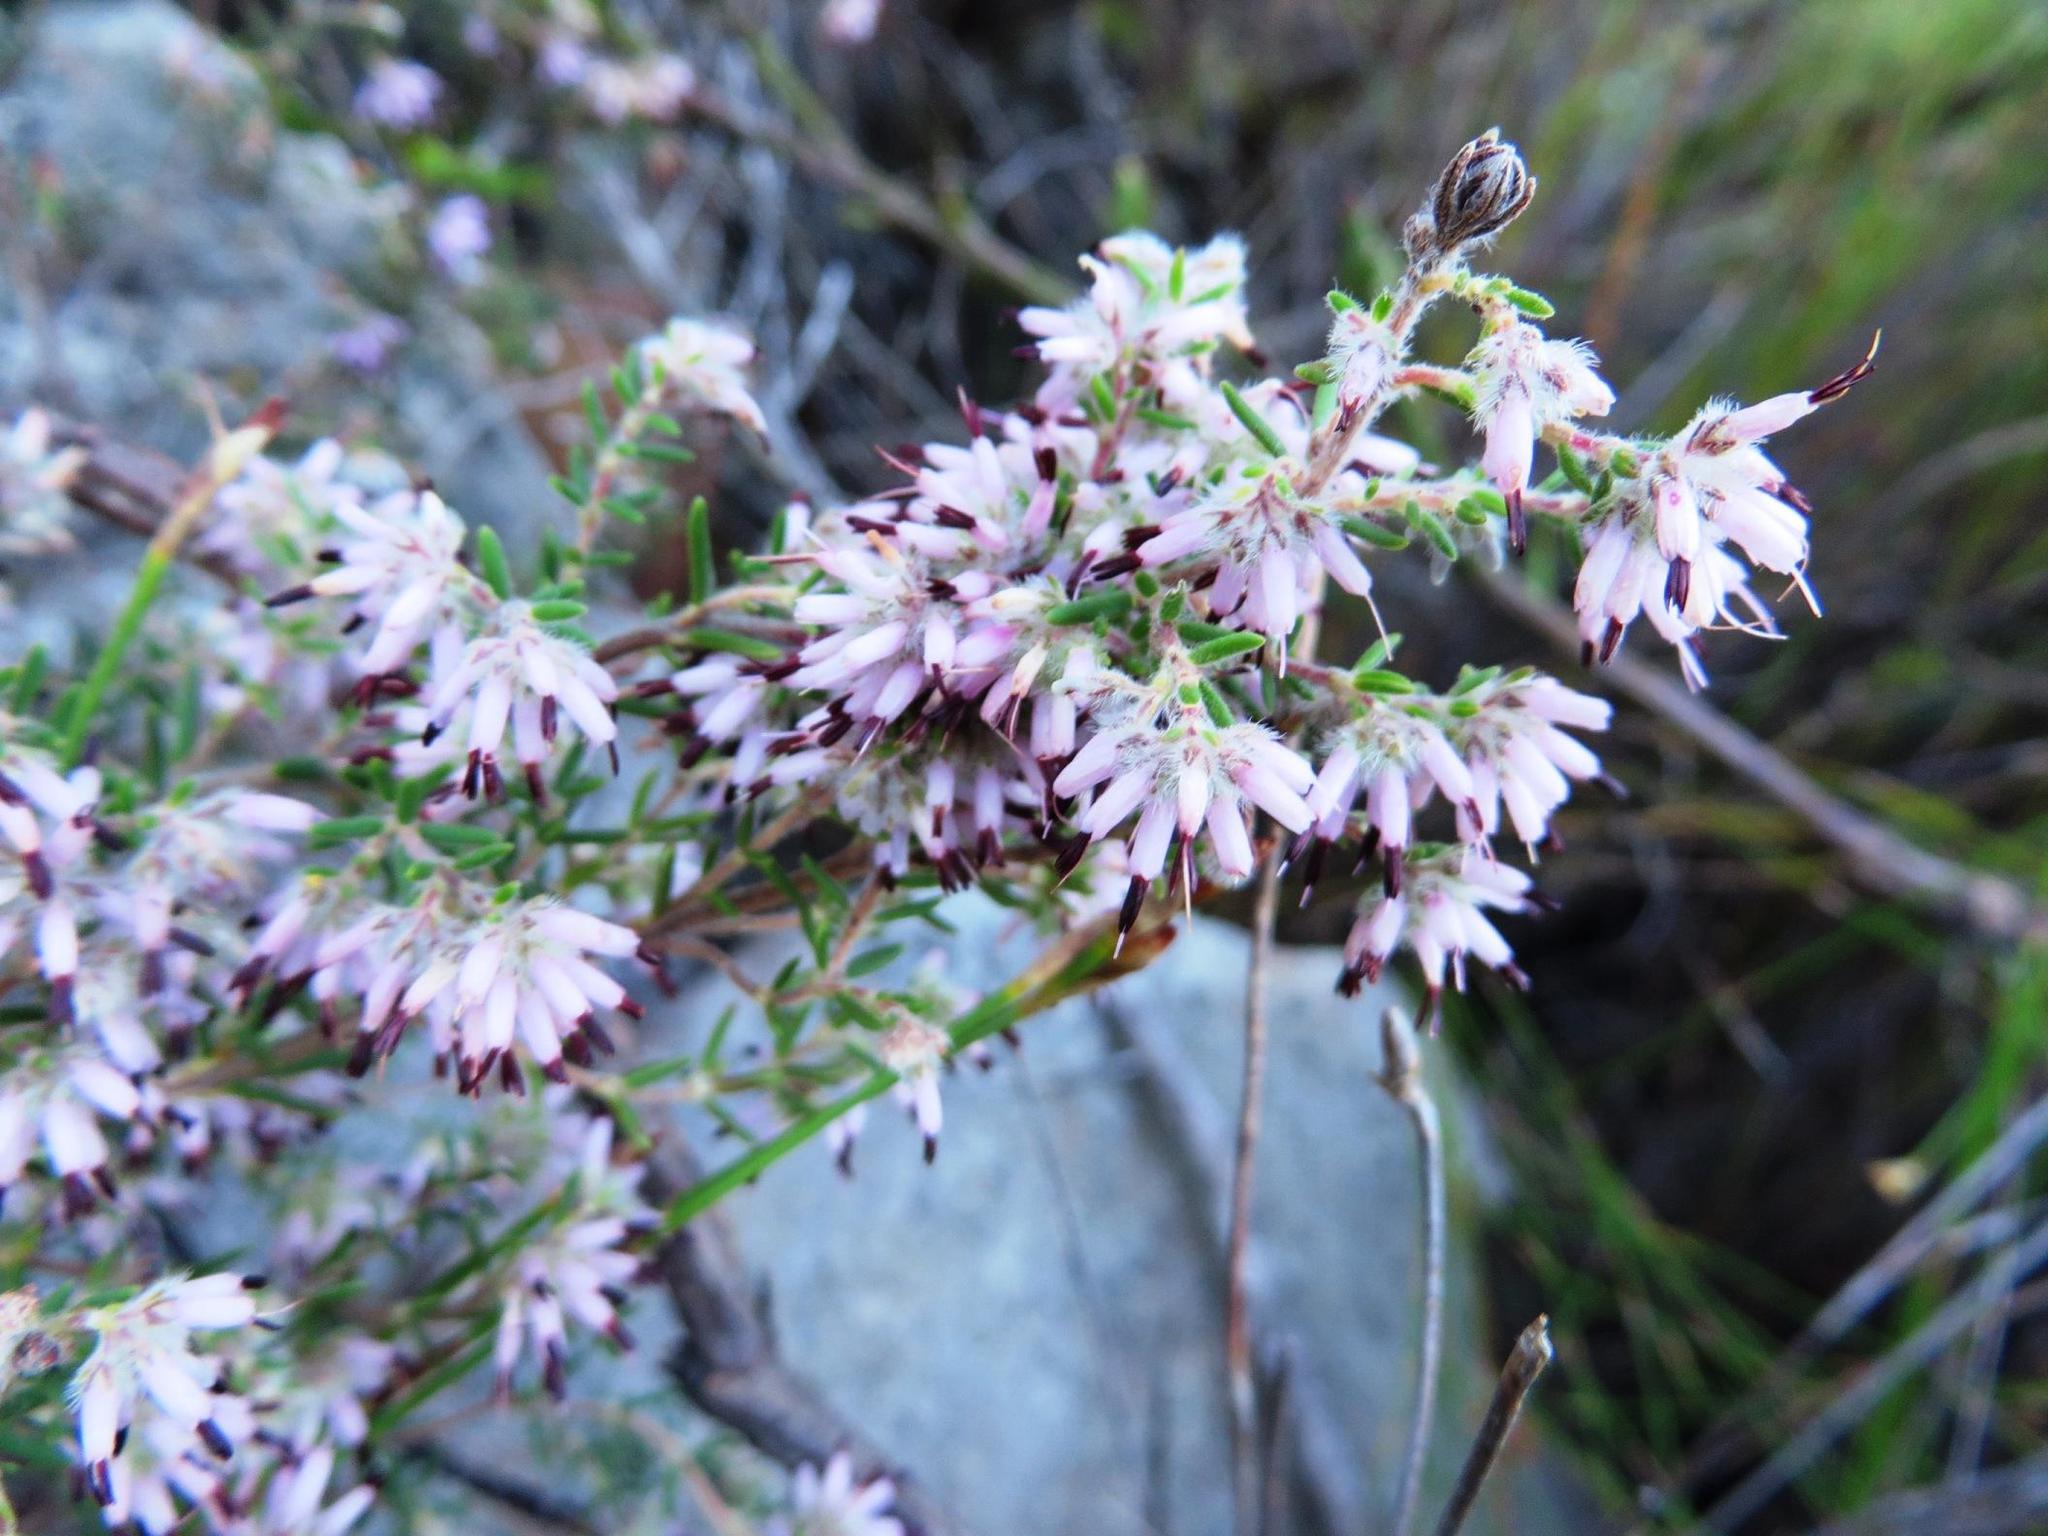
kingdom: Plantae
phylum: Tracheophyta
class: Magnoliopsida
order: Ericales
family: Ericaceae
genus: Erica
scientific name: Erica eriocephala
